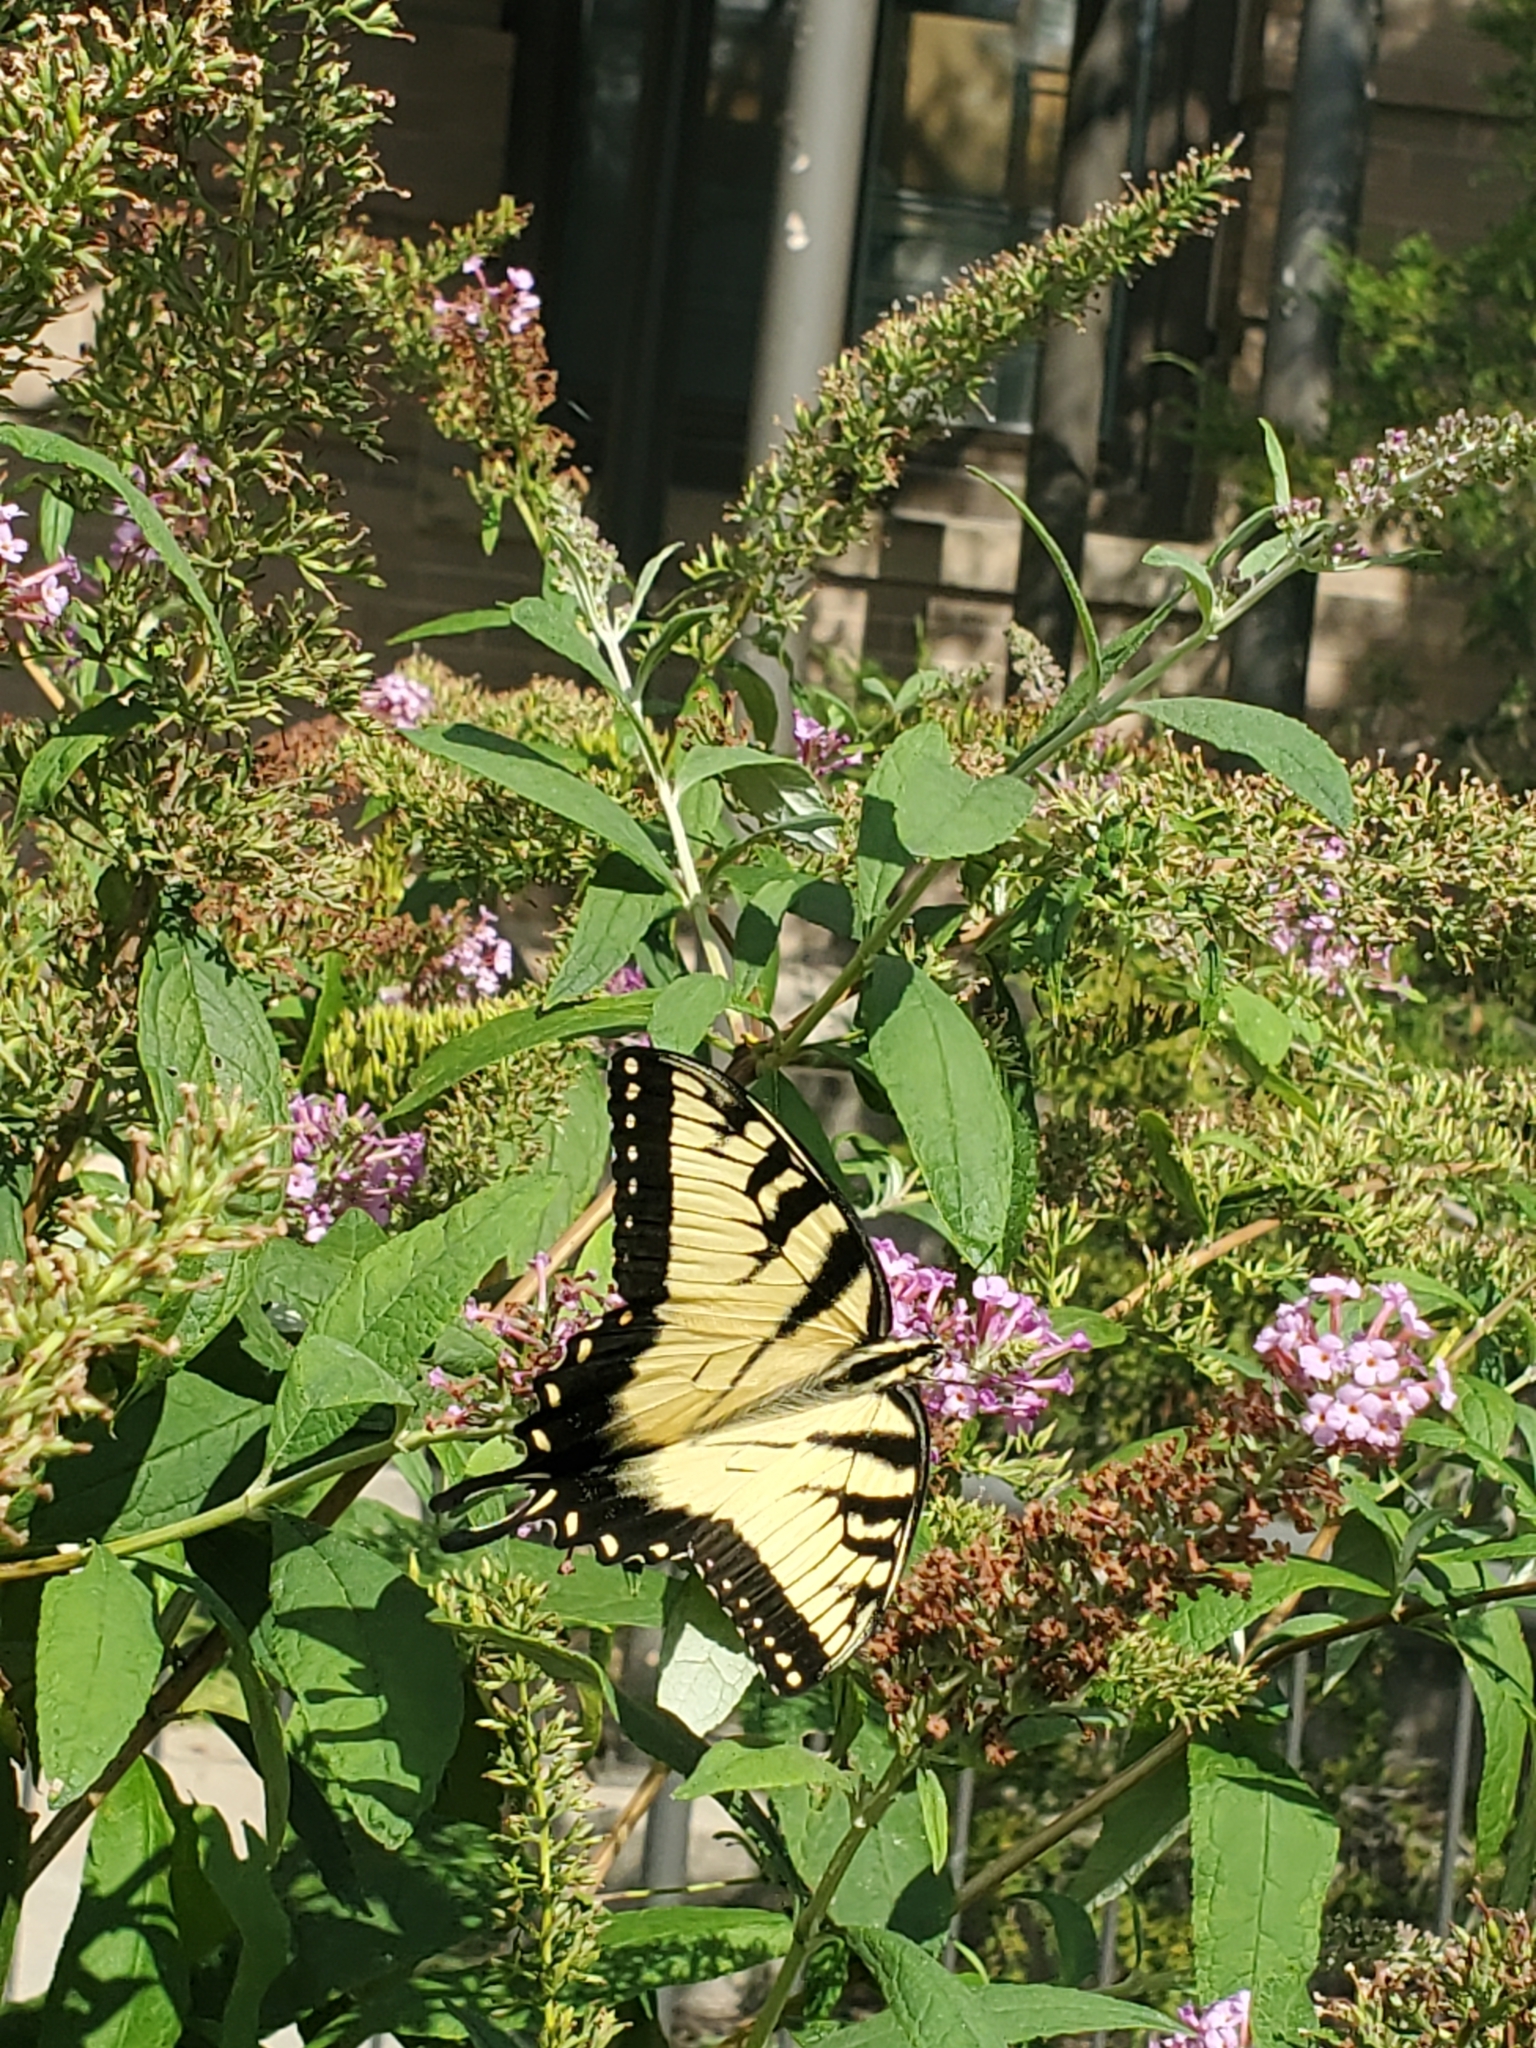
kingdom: Animalia
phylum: Arthropoda
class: Insecta
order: Lepidoptera
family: Papilionidae
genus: Papilio
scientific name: Papilio glaucus
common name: Tiger swallowtail
